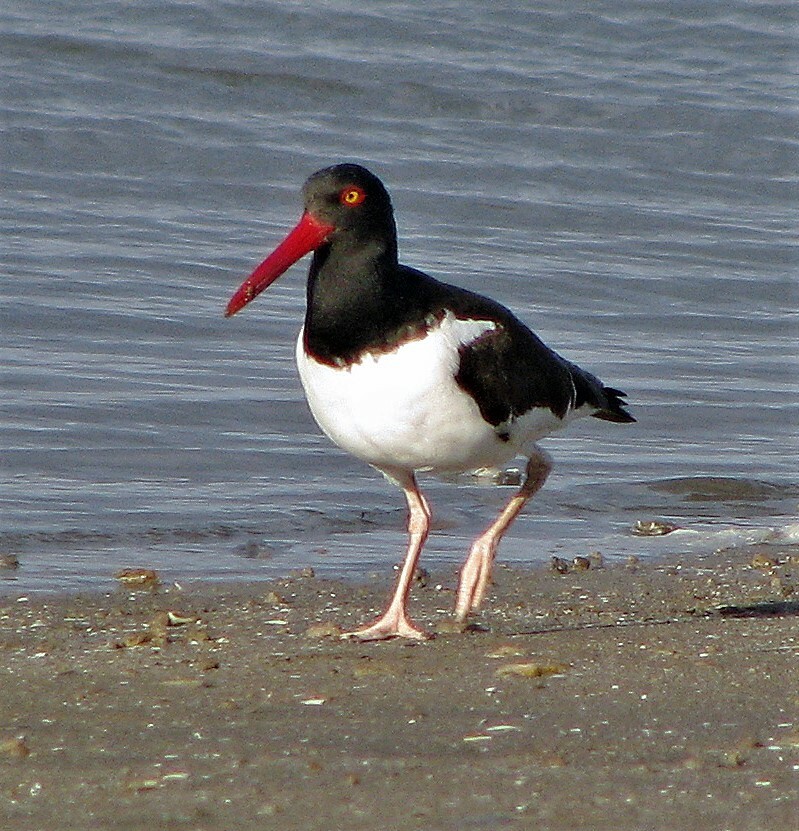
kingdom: Animalia
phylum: Chordata
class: Aves
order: Charadriiformes
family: Haematopodidae
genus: Haematopus
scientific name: Haematopus palliatus
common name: American oystercatcher
